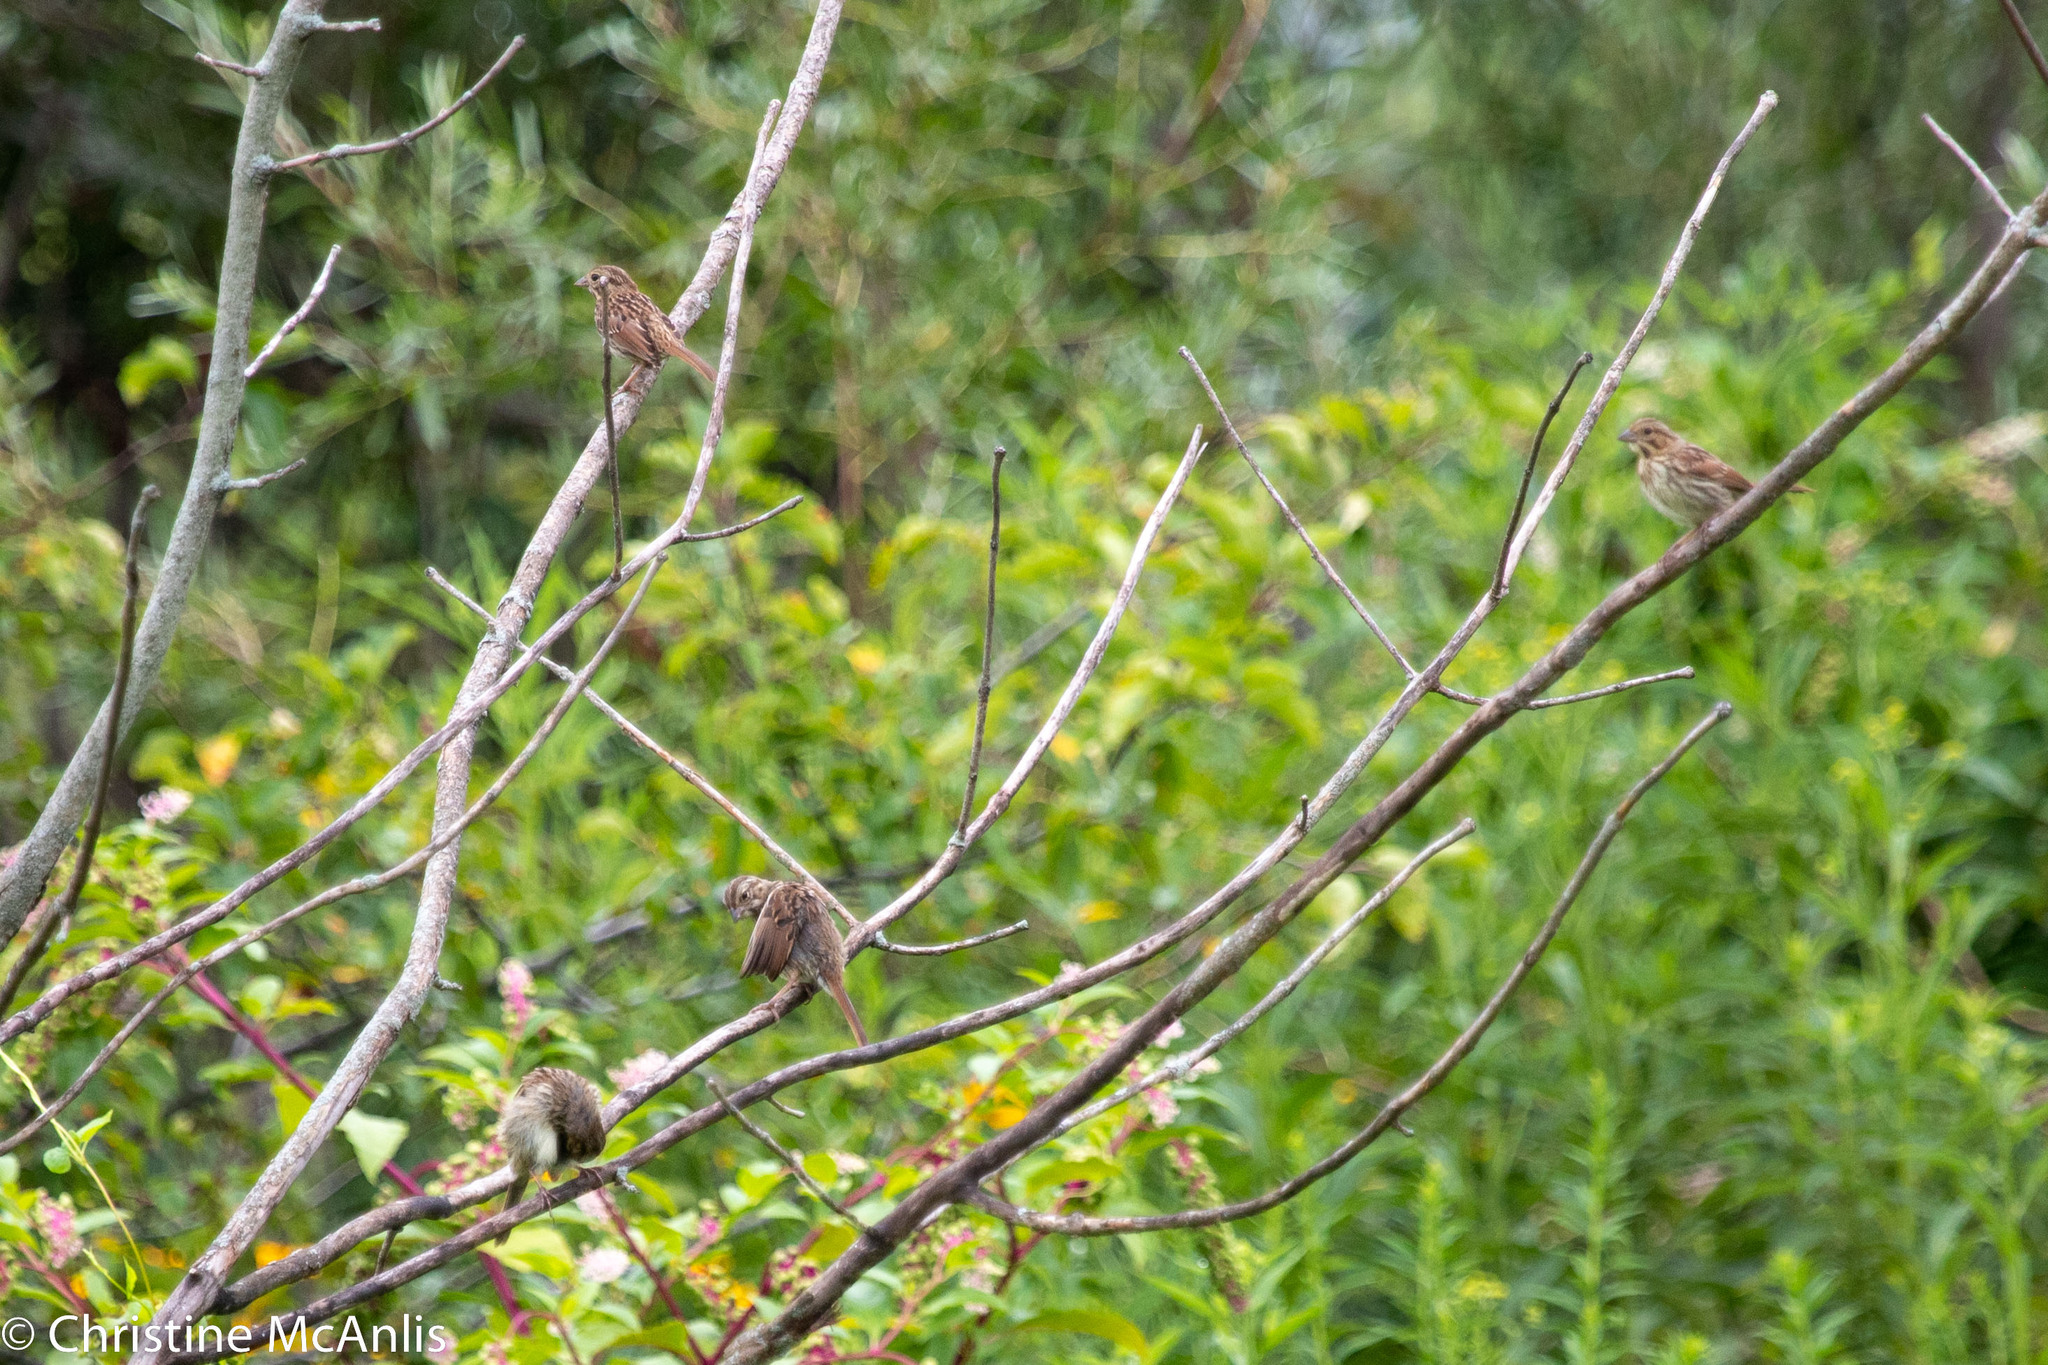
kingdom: Animalia
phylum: Chordata
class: Aves
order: Passeriformes
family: Passerellidae
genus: Melospiza
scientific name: Melospiza melodia
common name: Song sparrow
